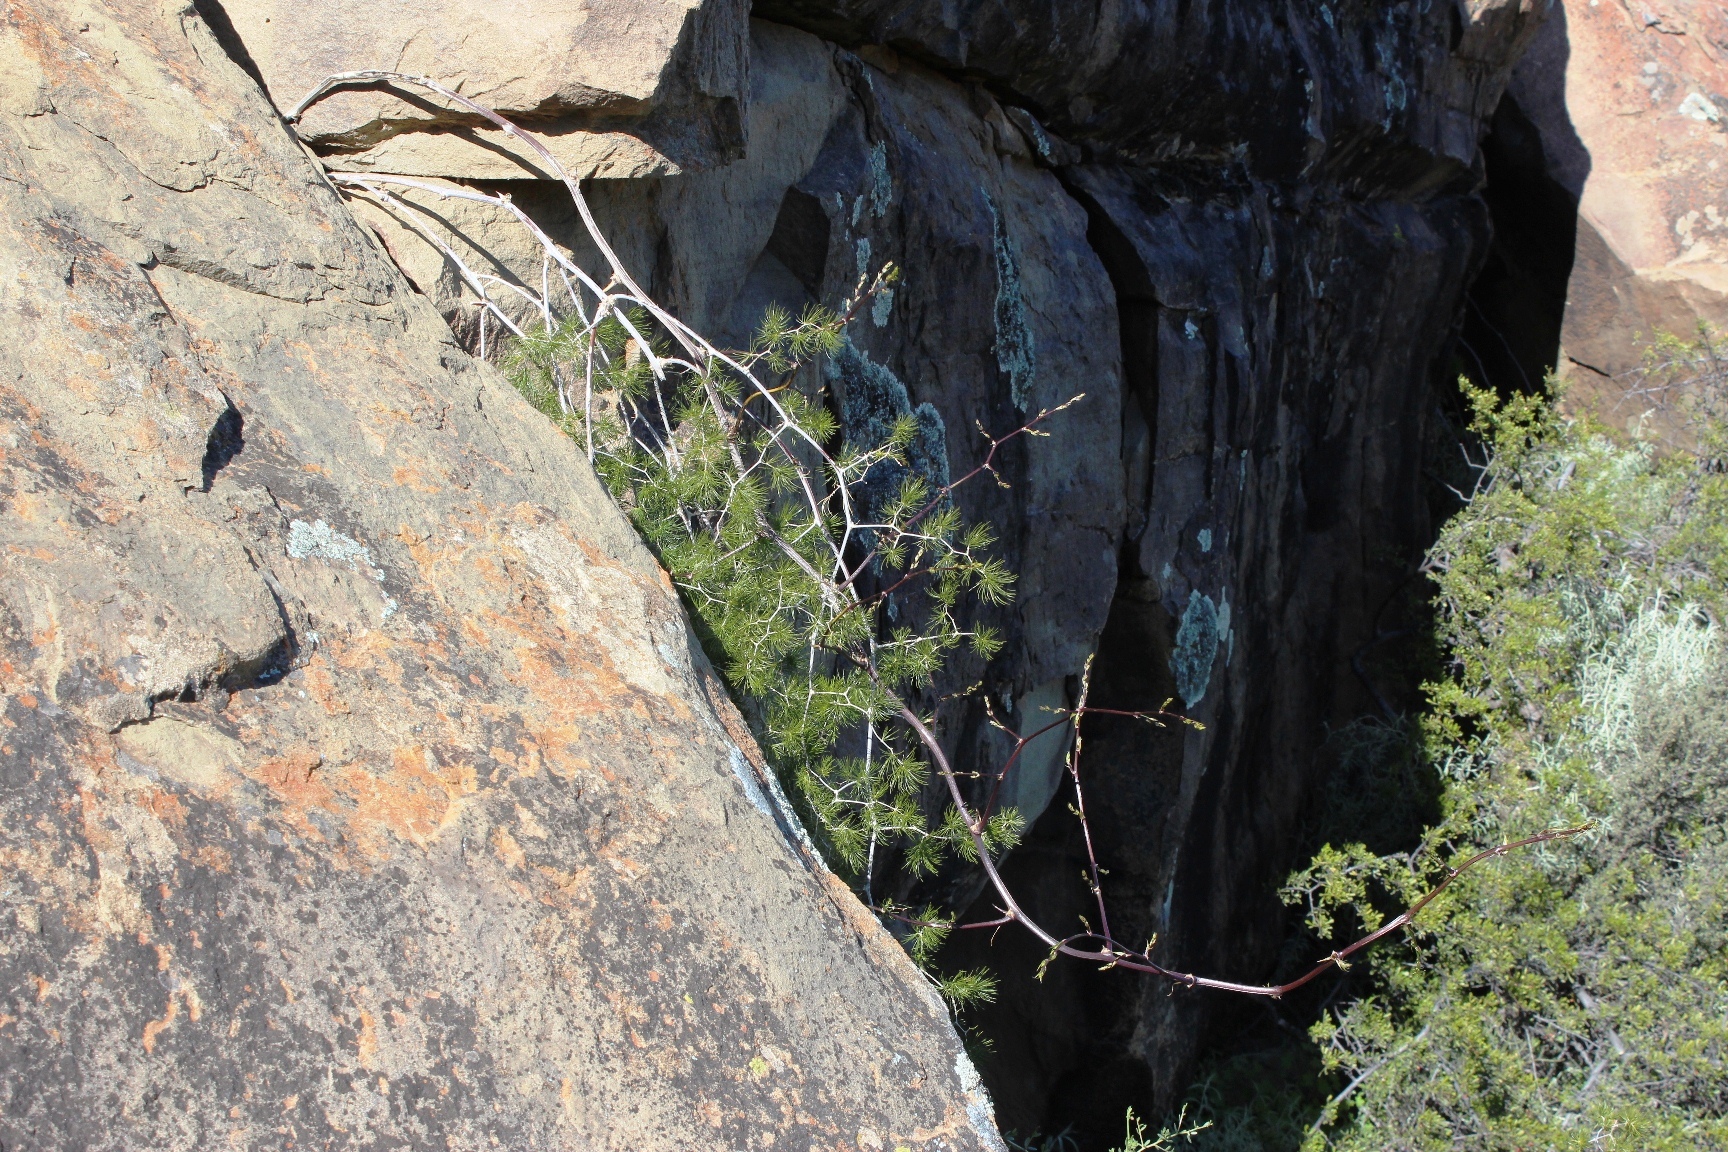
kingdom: Plantae
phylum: Tracheophyta
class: Liliopsida
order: Asparagales
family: Asparagaceae
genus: Asparagus
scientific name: Asparagus retrofractus
